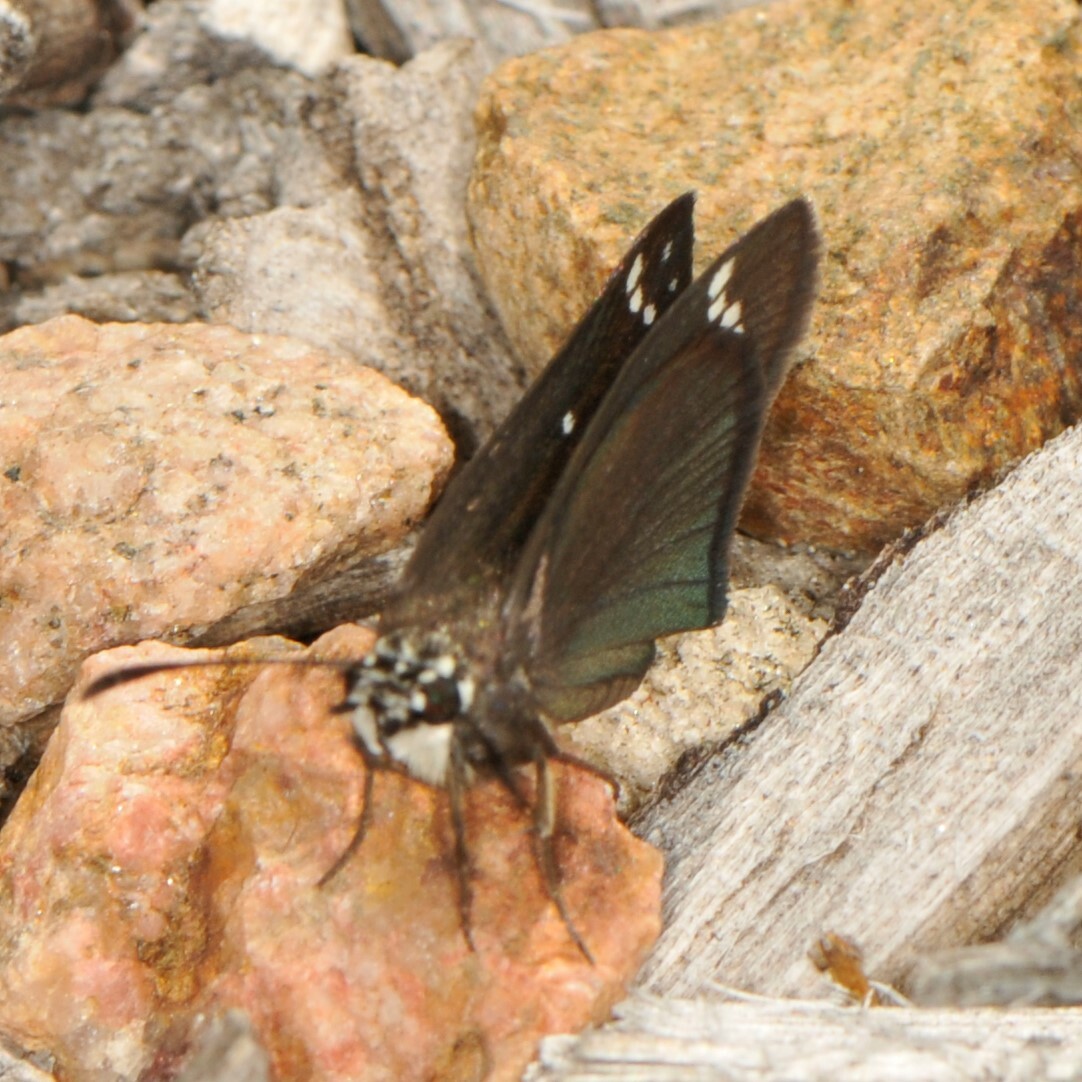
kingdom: Animalia
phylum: Arthropoda
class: Insecta
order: Lepidoptera
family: Hesperiidae
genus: Pholisora
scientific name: Pholisora catullus
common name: Common sootywing
